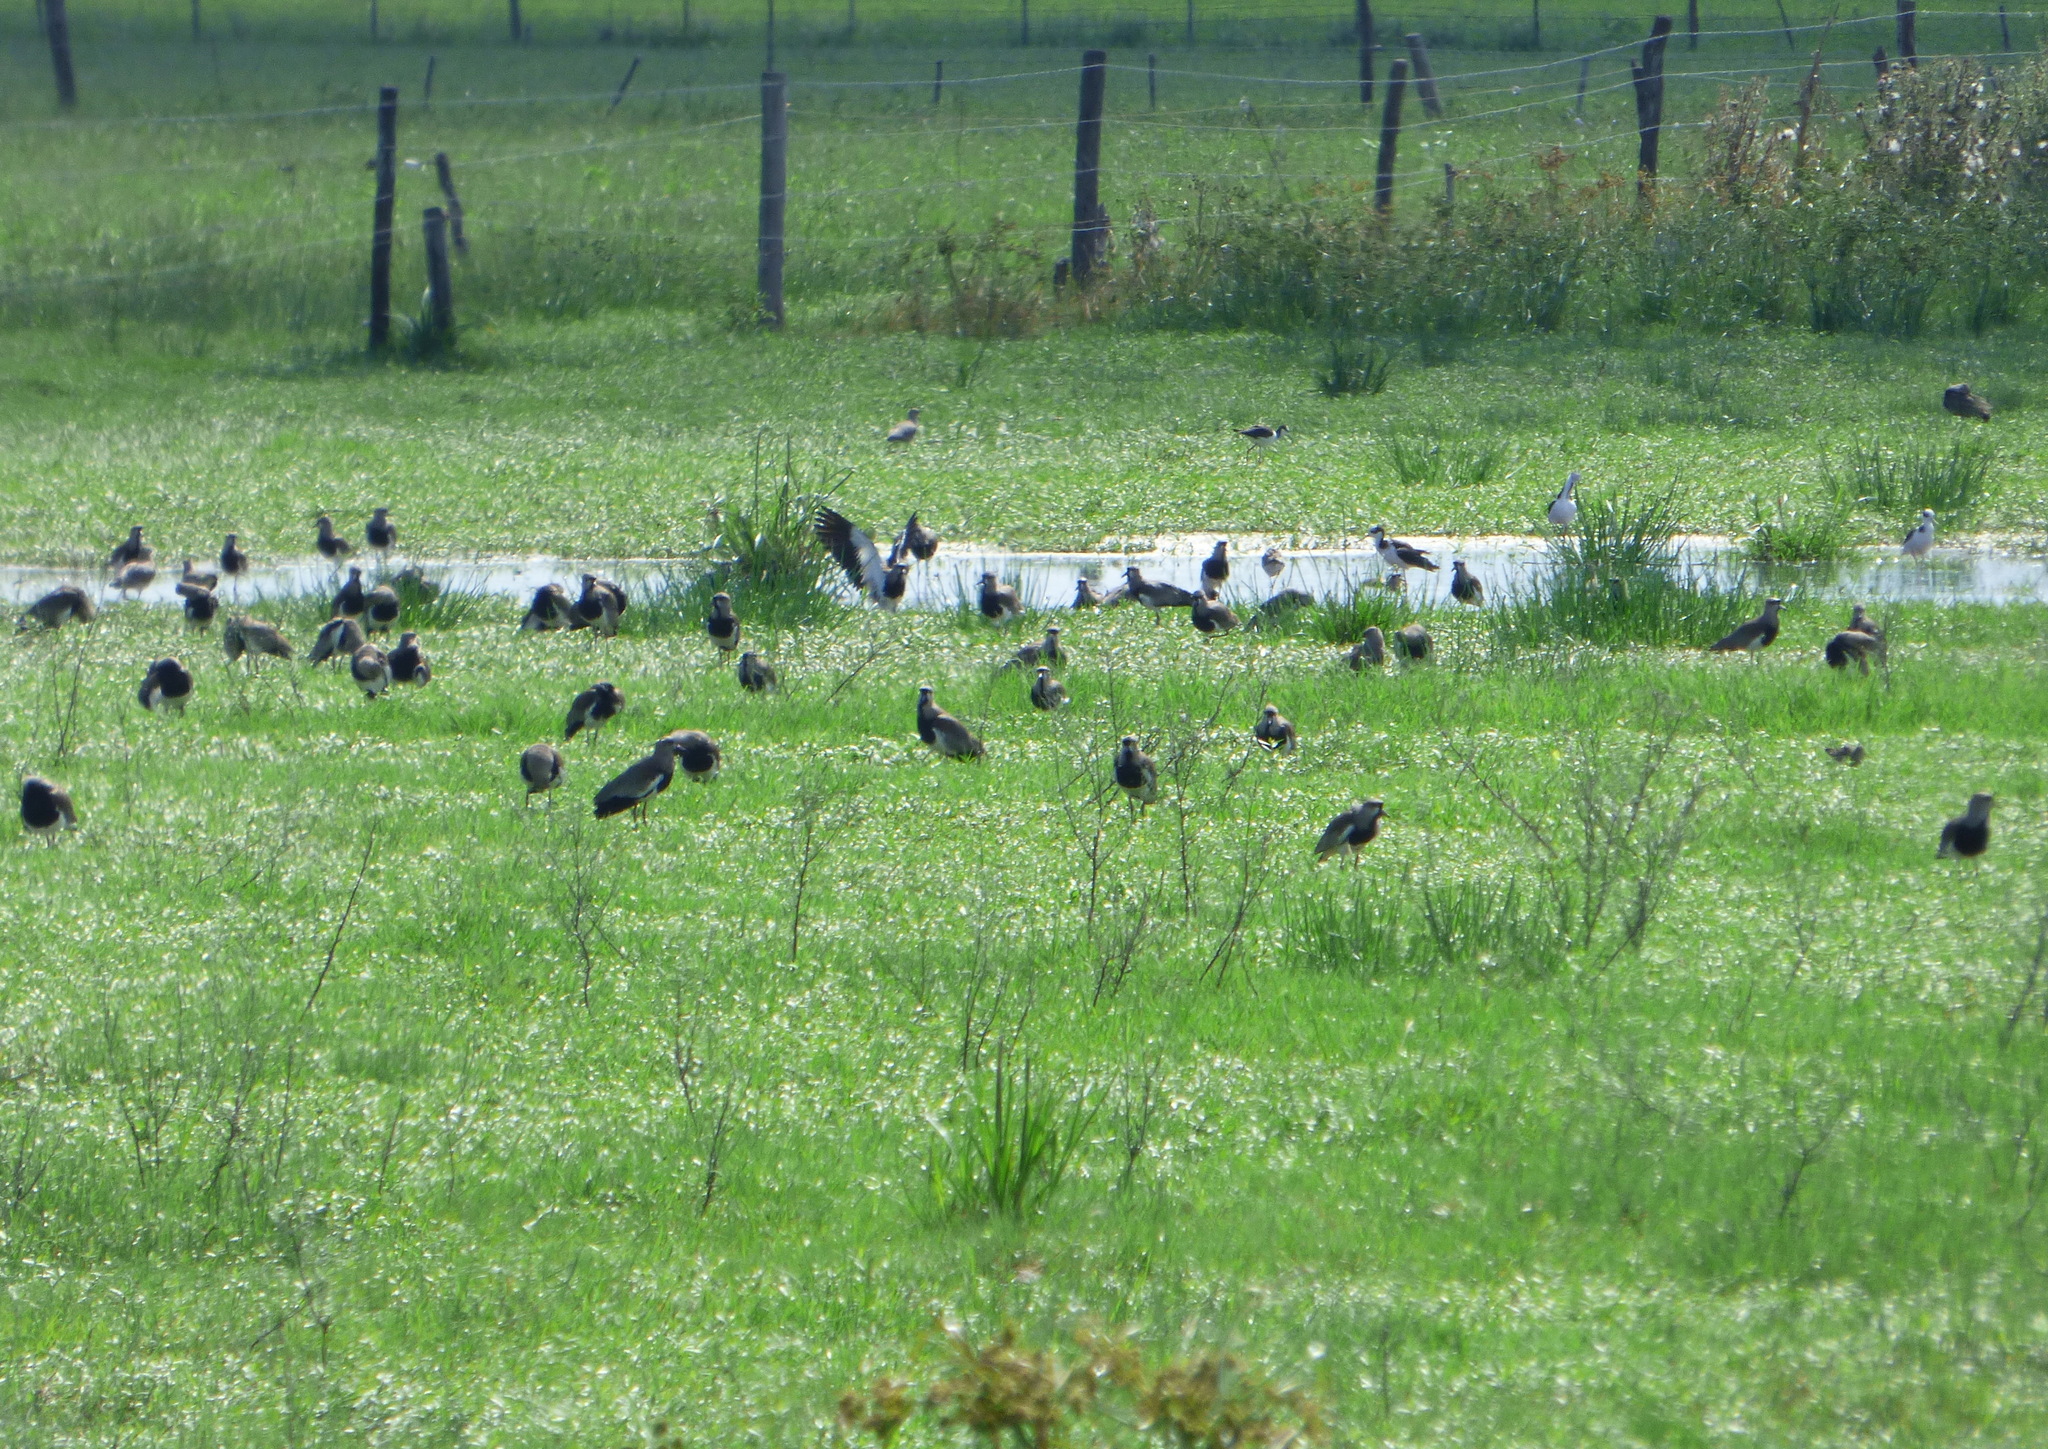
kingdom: Animalia
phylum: Chordata
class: Aves
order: Charadriiformes
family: Charadriidae
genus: Vanellus
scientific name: Vanellus chilensis
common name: Southern lapwing
